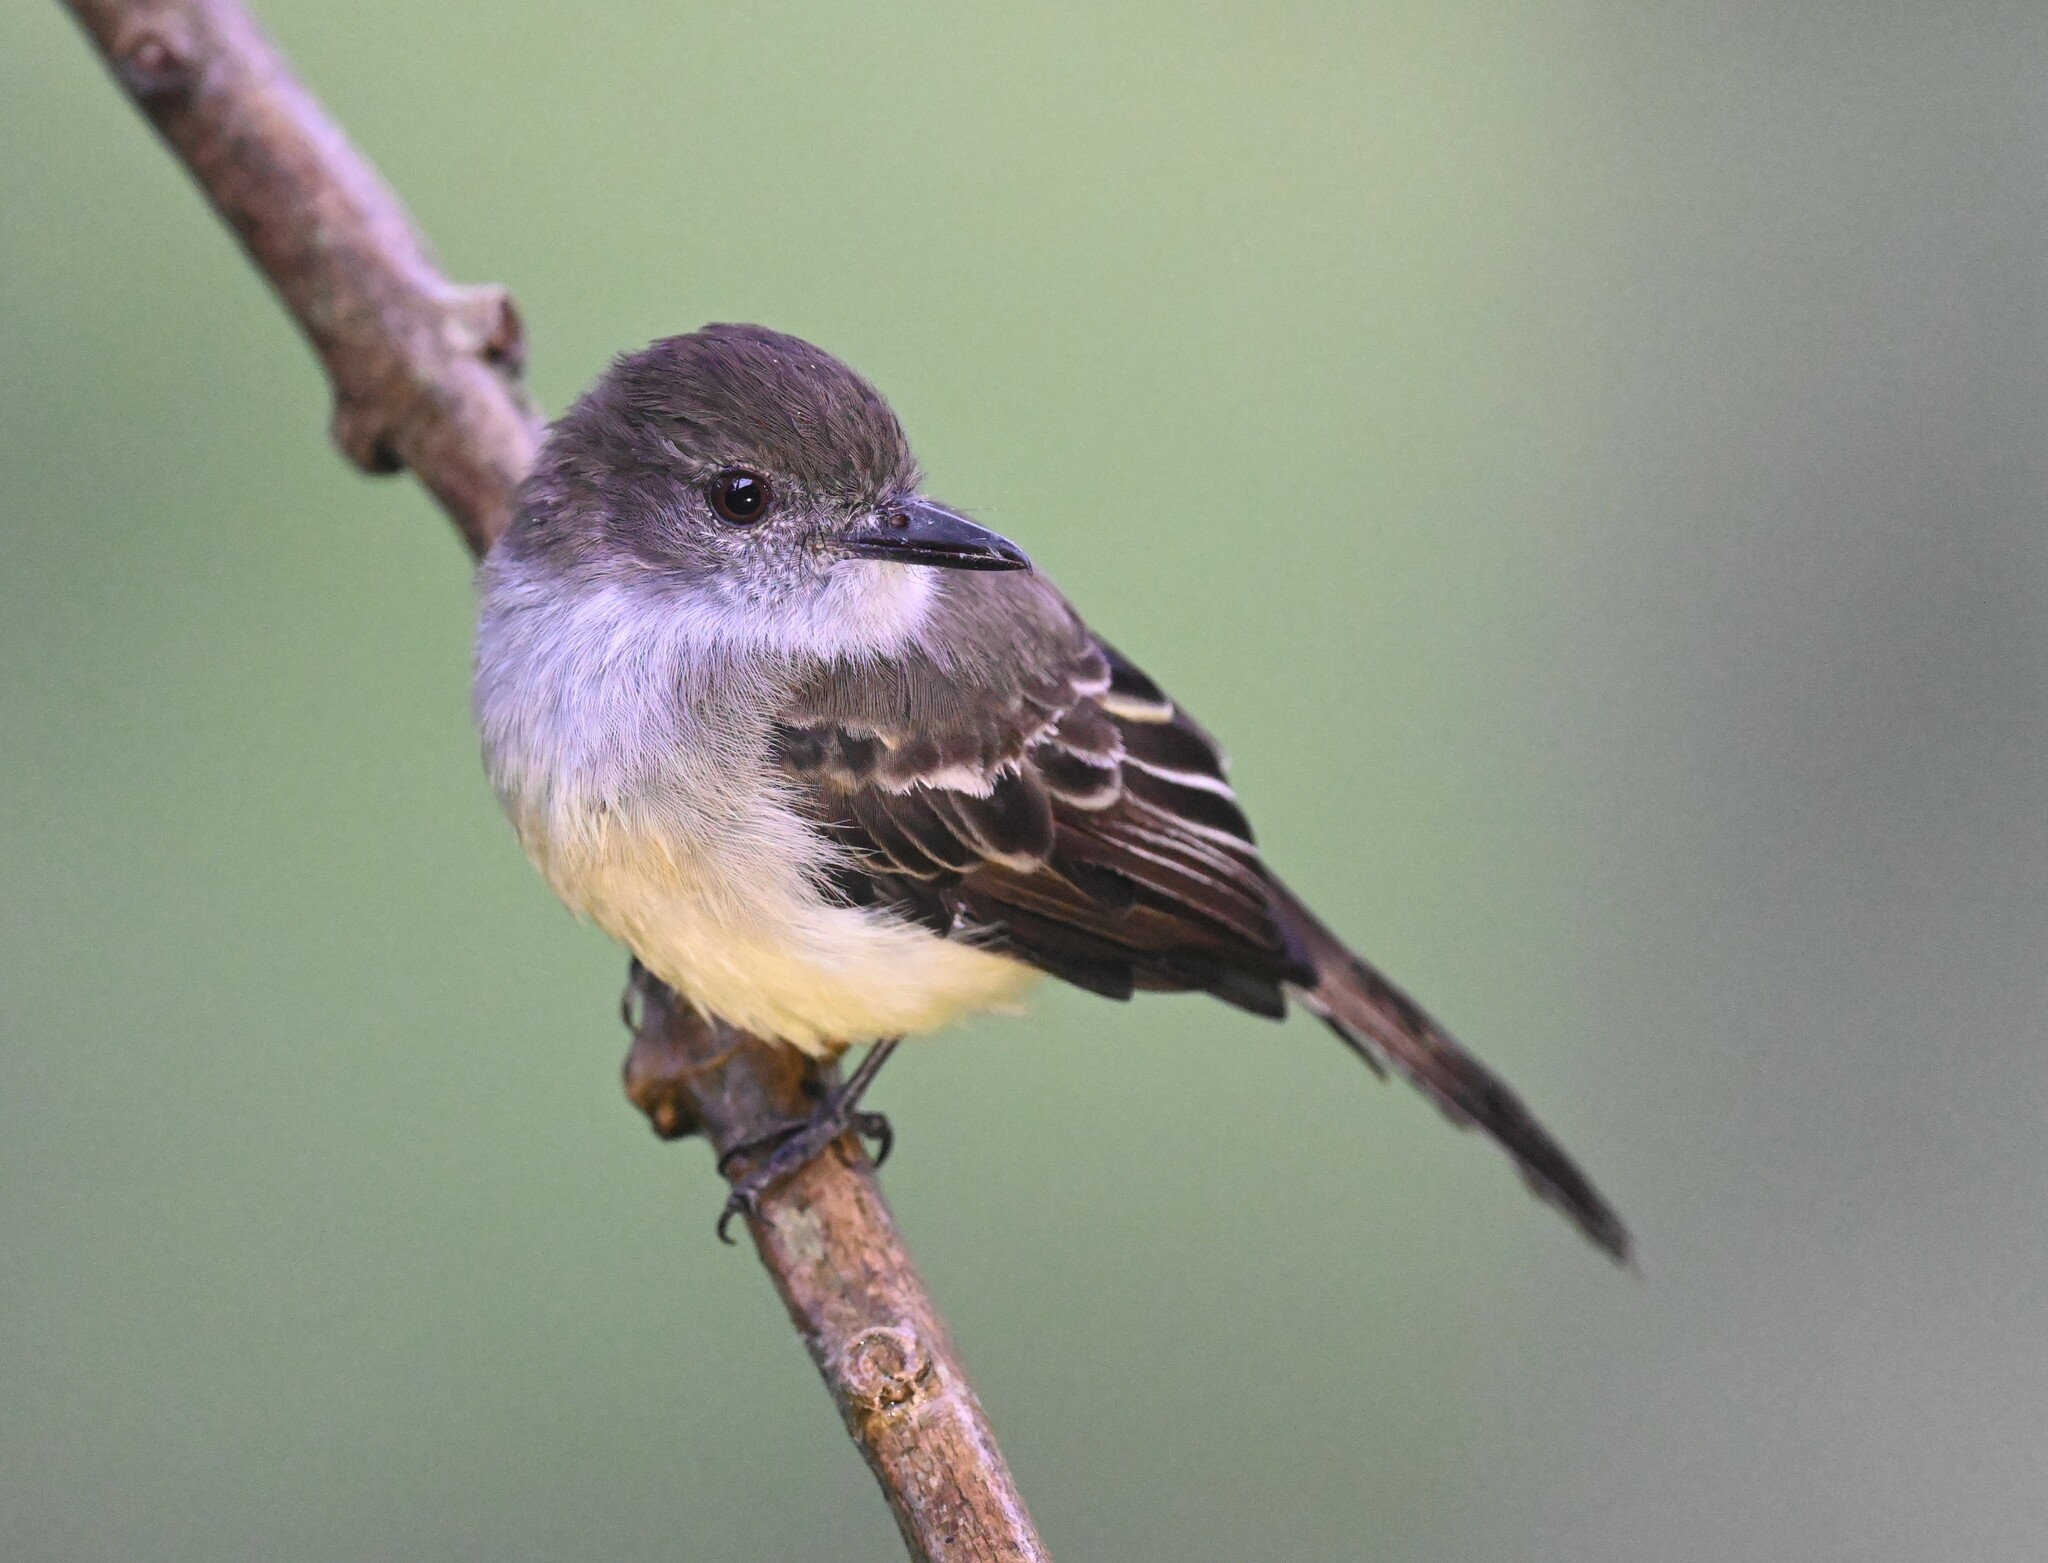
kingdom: Animalia
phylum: Chordata
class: Aves
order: Passeriformes
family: Tyrannidae
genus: Myiarchus
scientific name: Myiarchus cephalotes
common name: Pale-edged flycatcher
